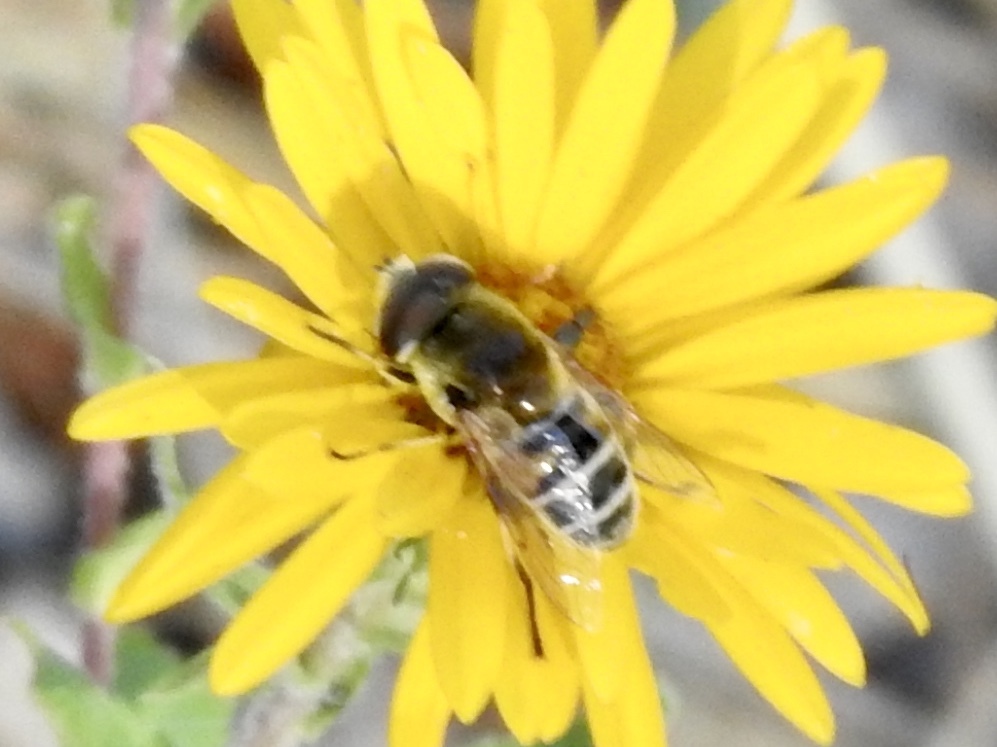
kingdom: Animalia
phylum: Arthropoda
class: Insecta
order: Diptera
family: Syrphidae
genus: Eristalis
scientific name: Eristalis stipator
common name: Yellow-shouldered drone fly
